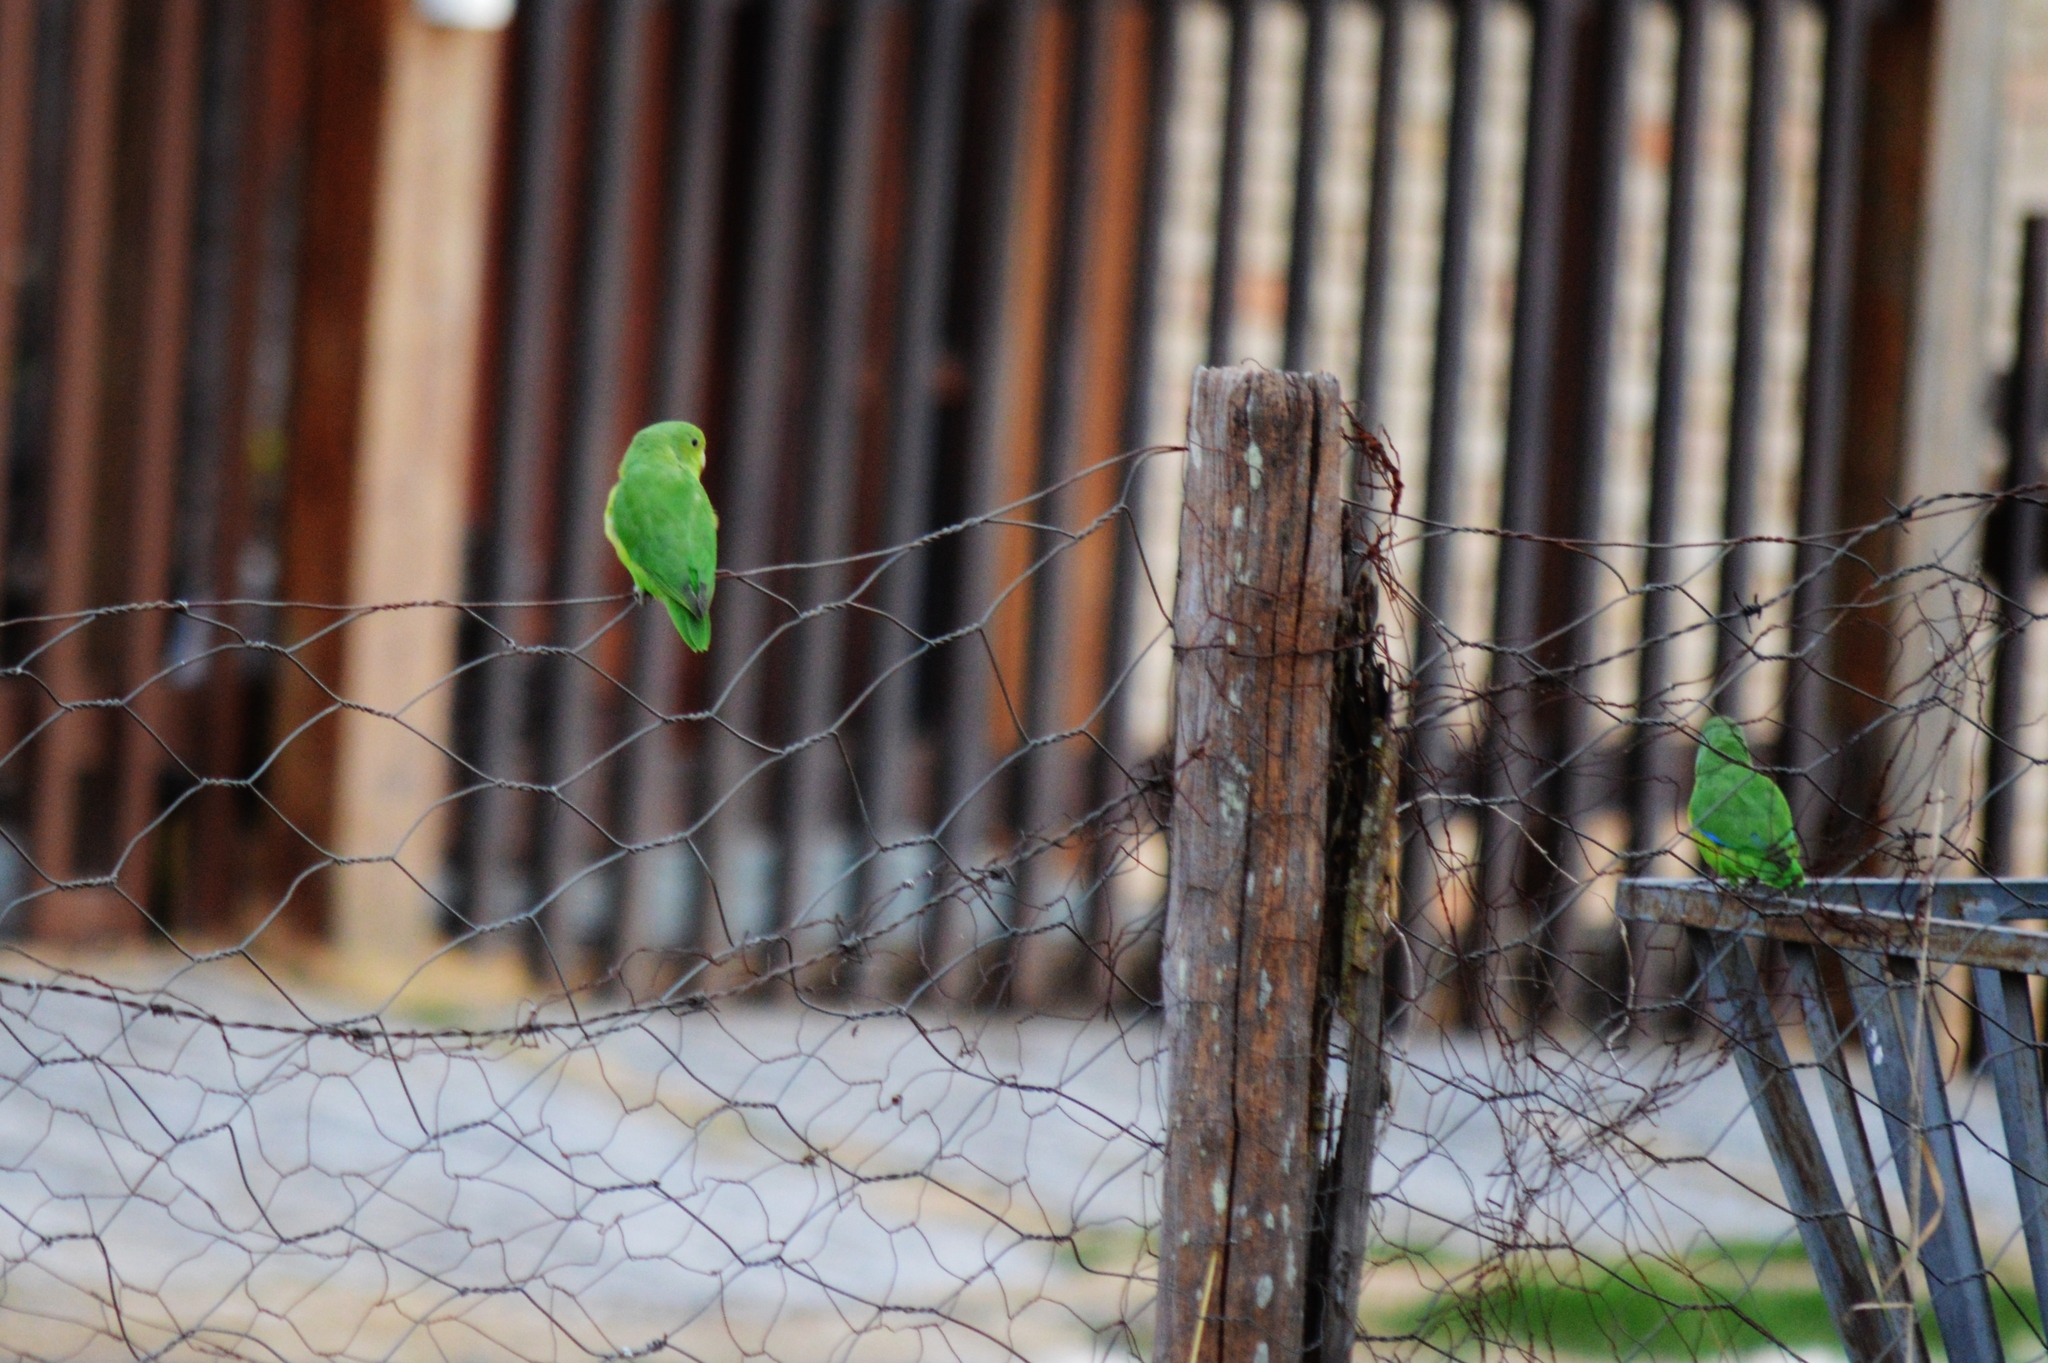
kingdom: Animalia
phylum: Chordata
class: Aves
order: Psittaciformes
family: Psittacidae
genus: Forpus
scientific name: Forpus xanthopterygius
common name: Blue-winged parrotlet
